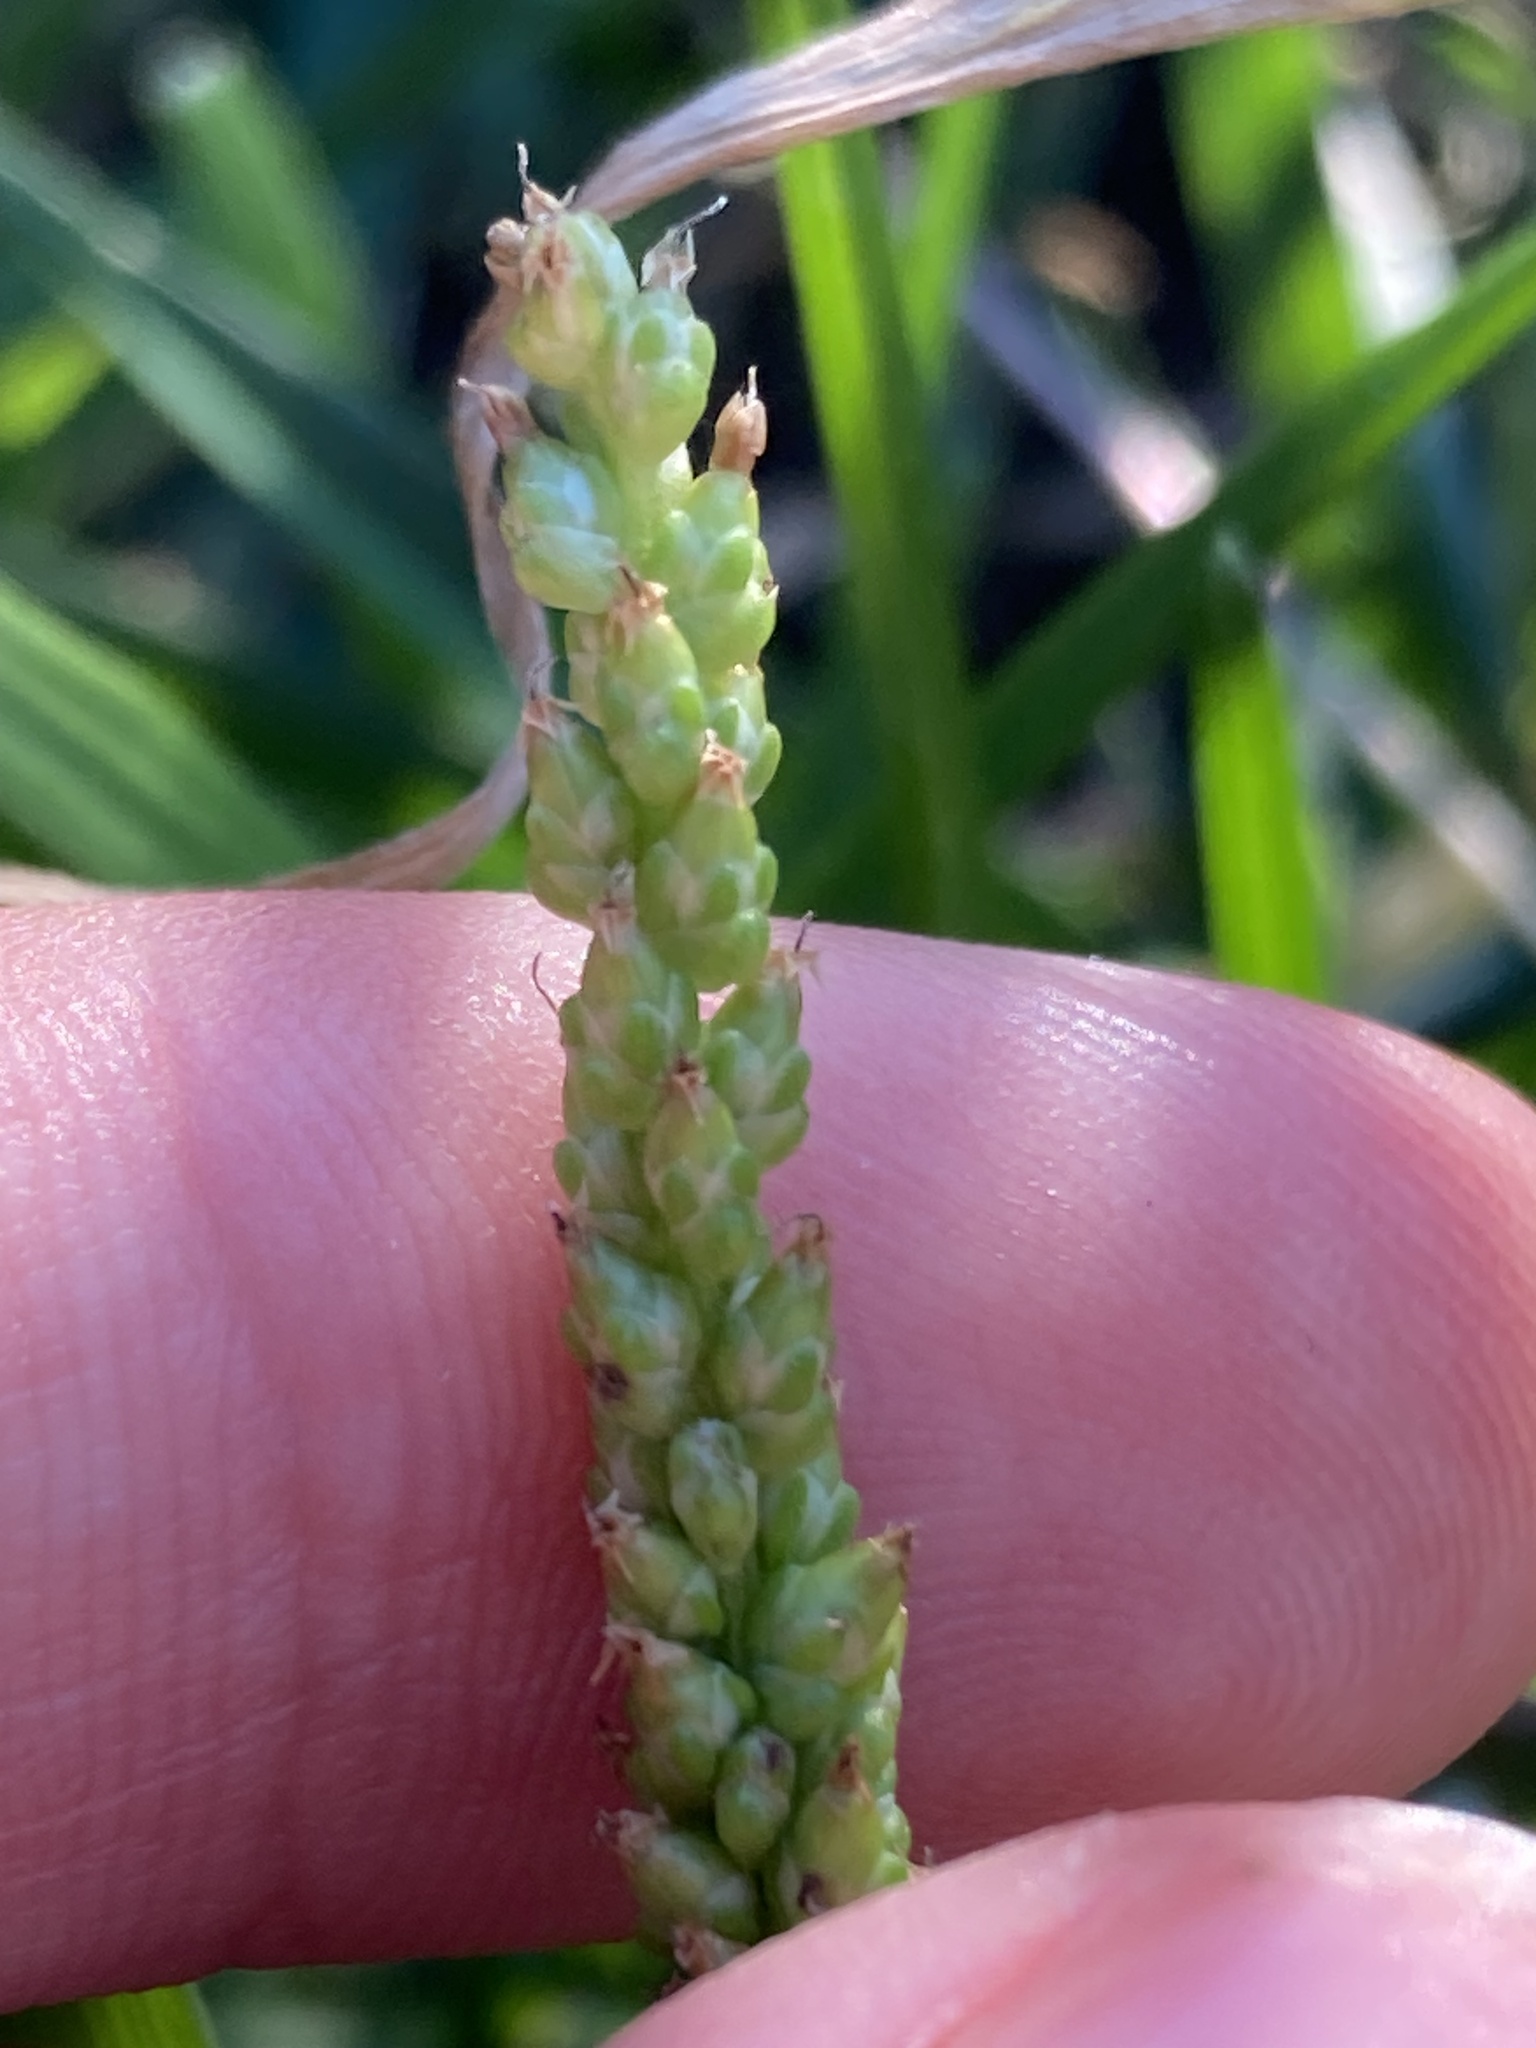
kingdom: Plantae
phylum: Tracheophyta
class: Magnoliopsida
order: Lamiales
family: Plantaginaceae
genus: Plantago
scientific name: Plantago major
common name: Common plantain
